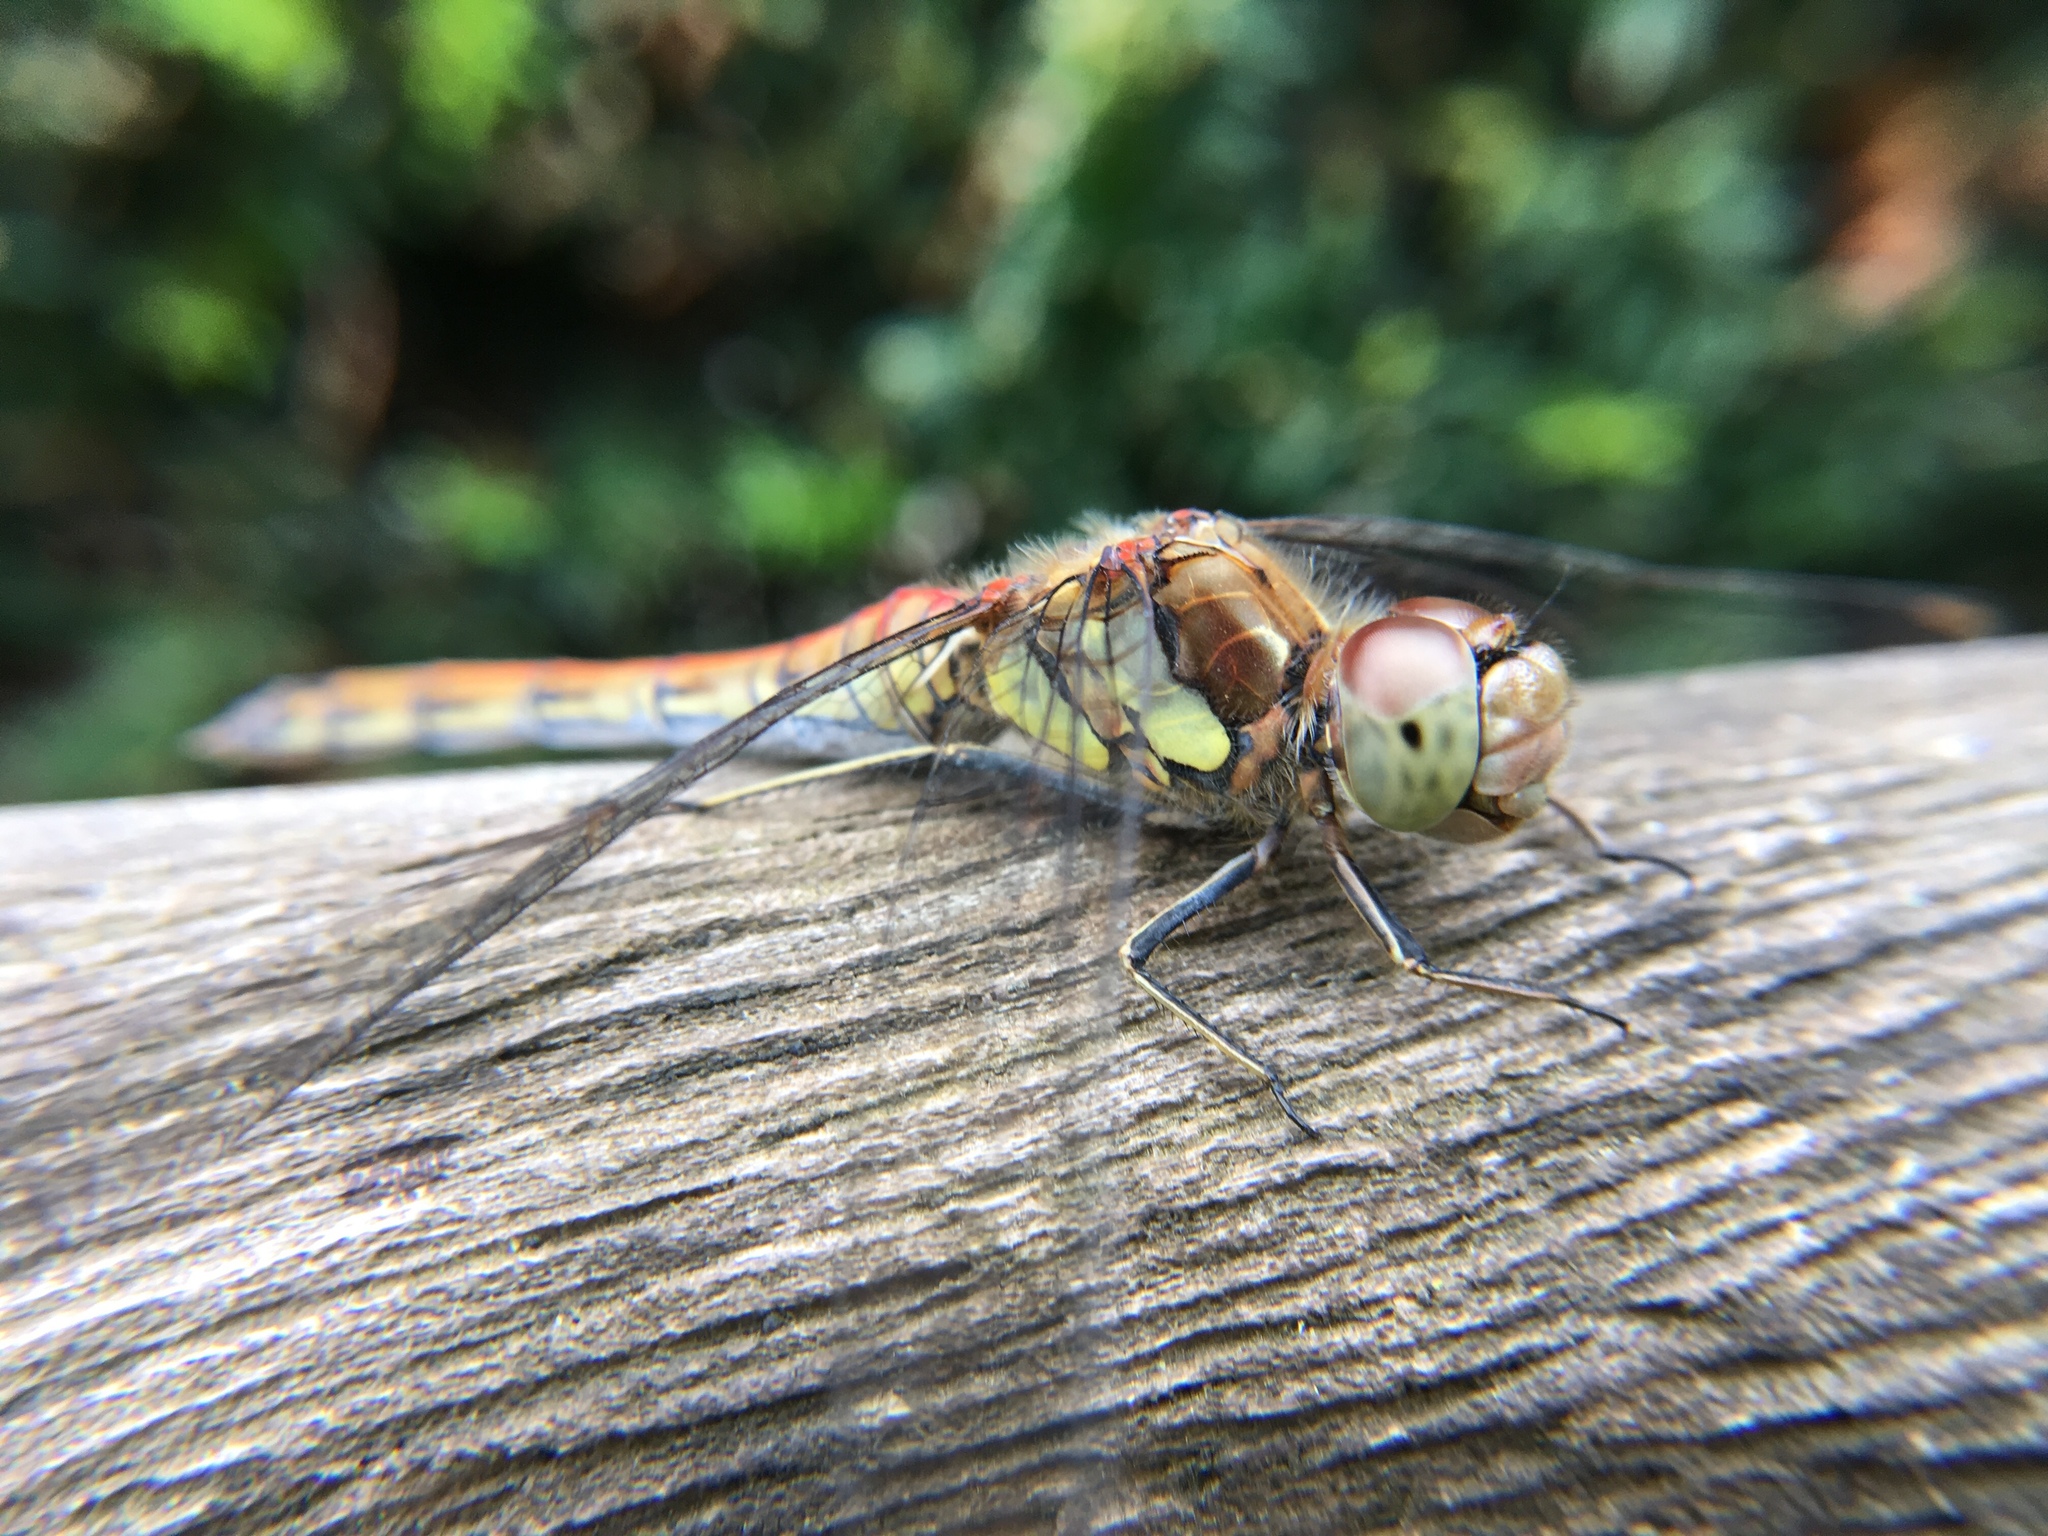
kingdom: Animalia
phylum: Arthropoda
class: Insecta
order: Odonata
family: Libellulidae
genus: Sympetrum
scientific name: Sympetrum striolatum
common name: Common darter
